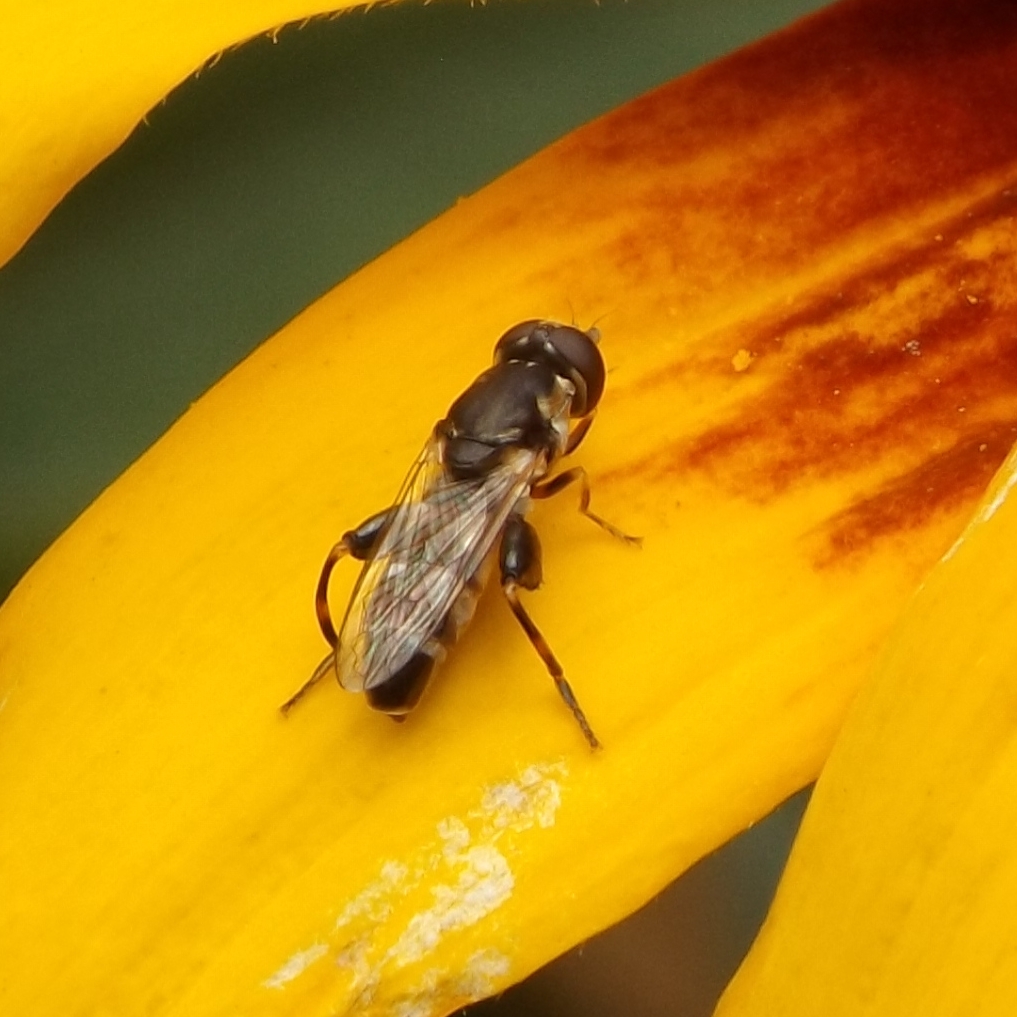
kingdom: Animalia
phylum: Arthropoda
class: Insecta
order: Diptera
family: Syrphidae
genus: Syritta
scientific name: Syritta pipiens
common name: Hover fly
